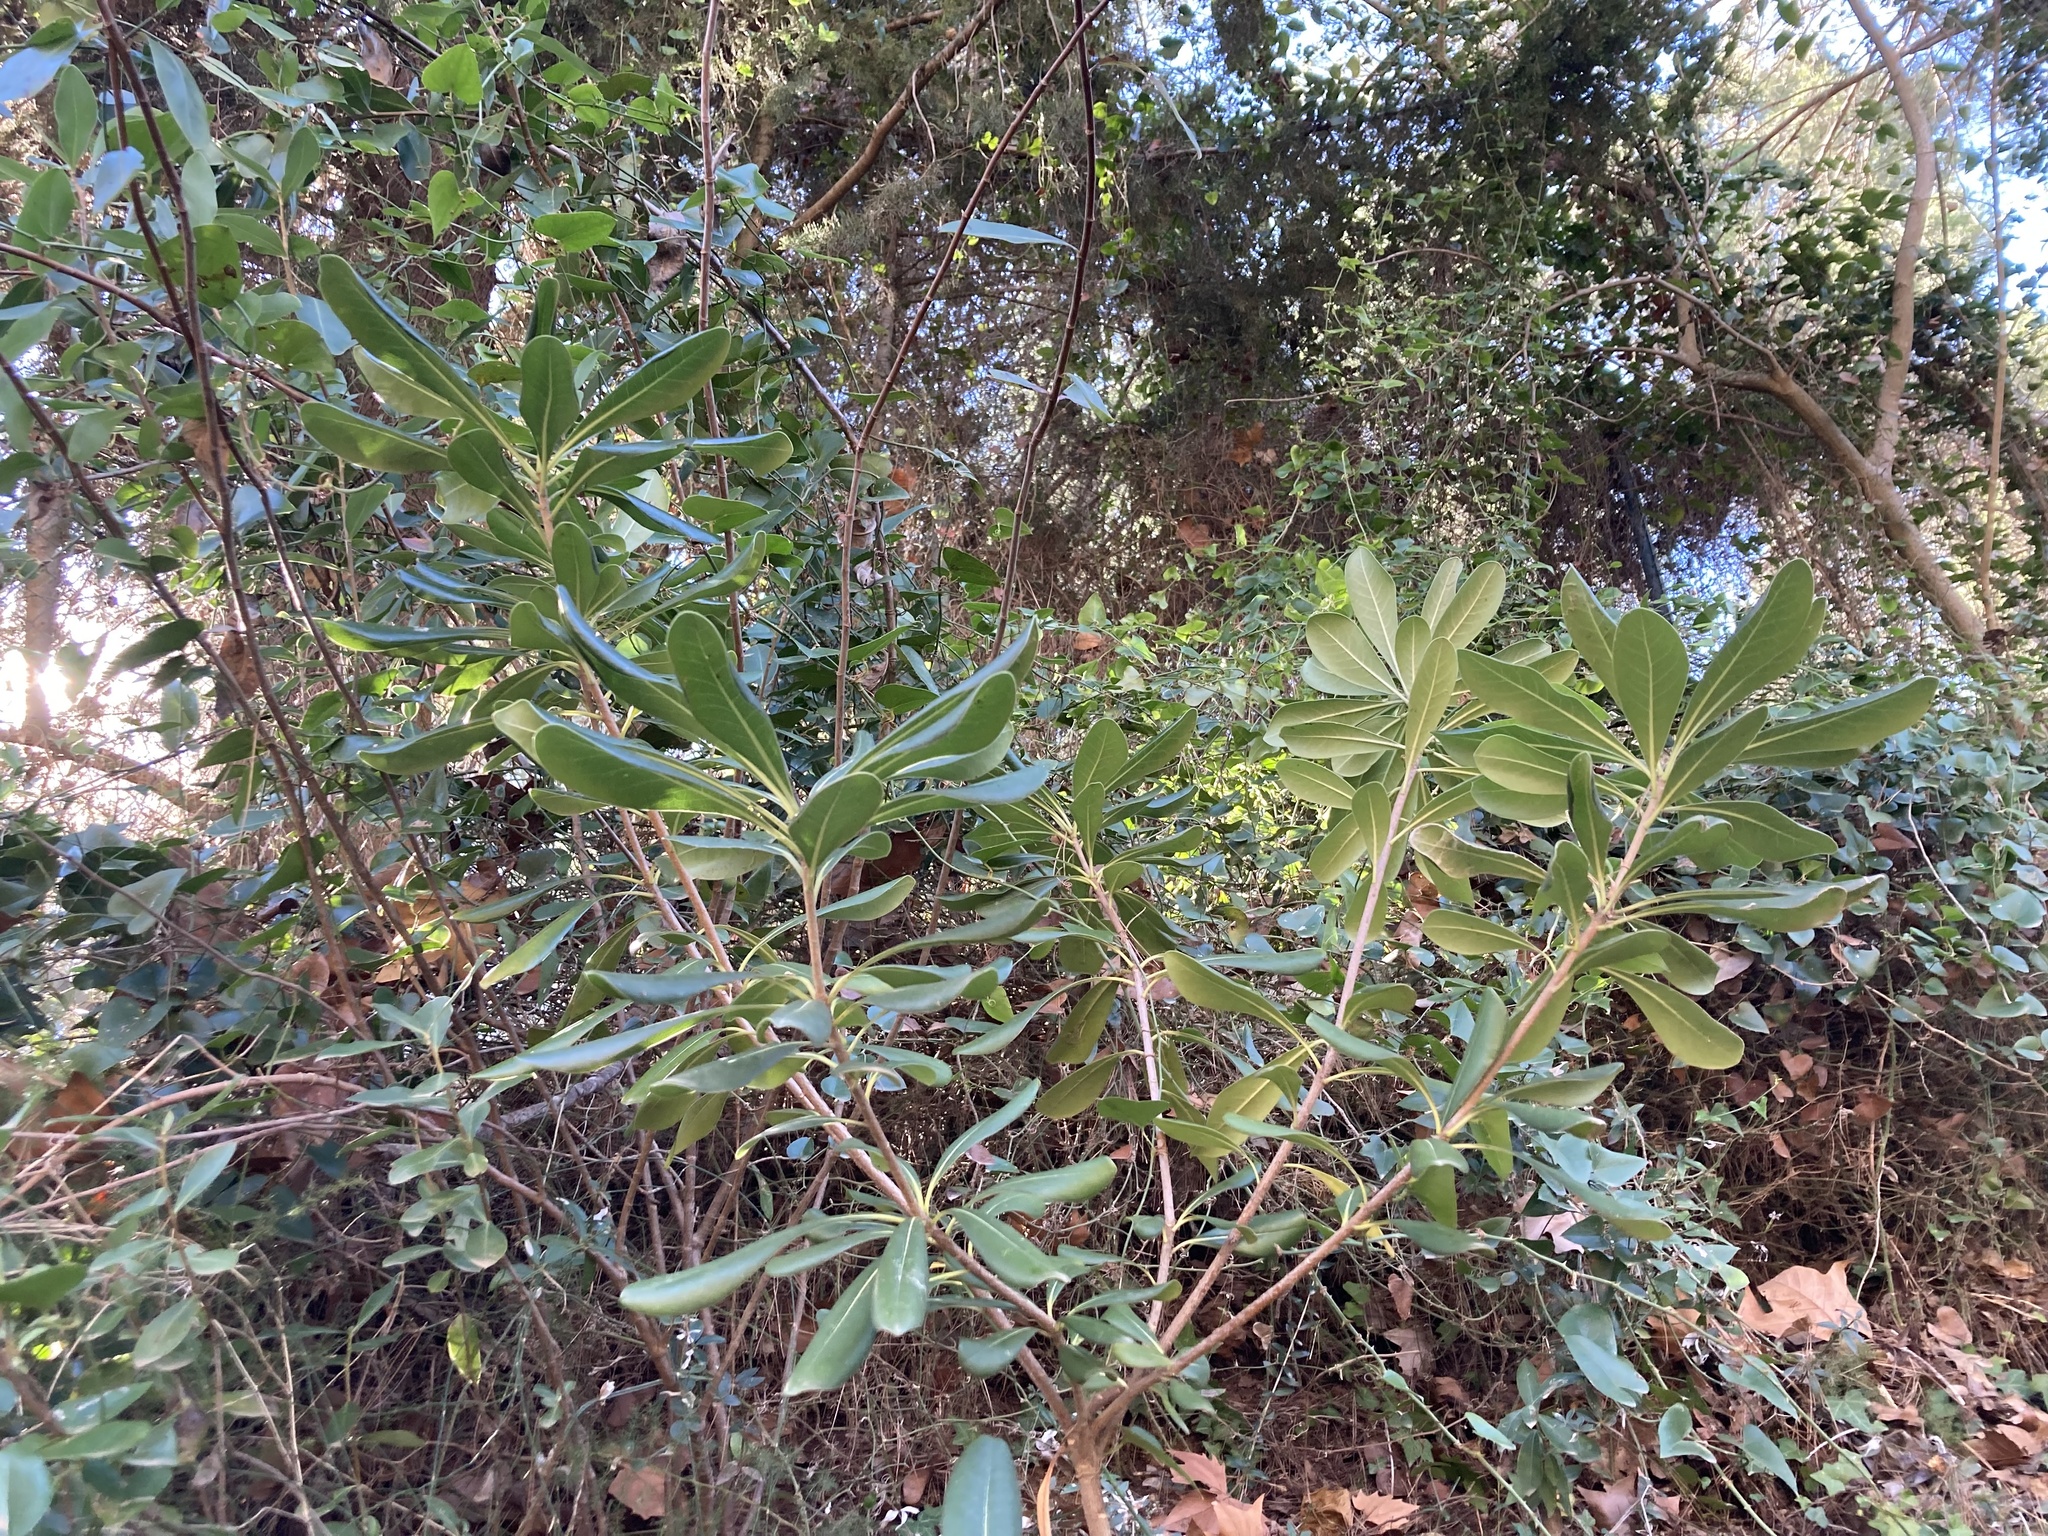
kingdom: Plantae
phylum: Tracheophyta
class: Magnoliopsida
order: Apiales
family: Pittosporaceae
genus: Pittosporum
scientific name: Pittosporum tobira
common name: Japanese cheesewood
